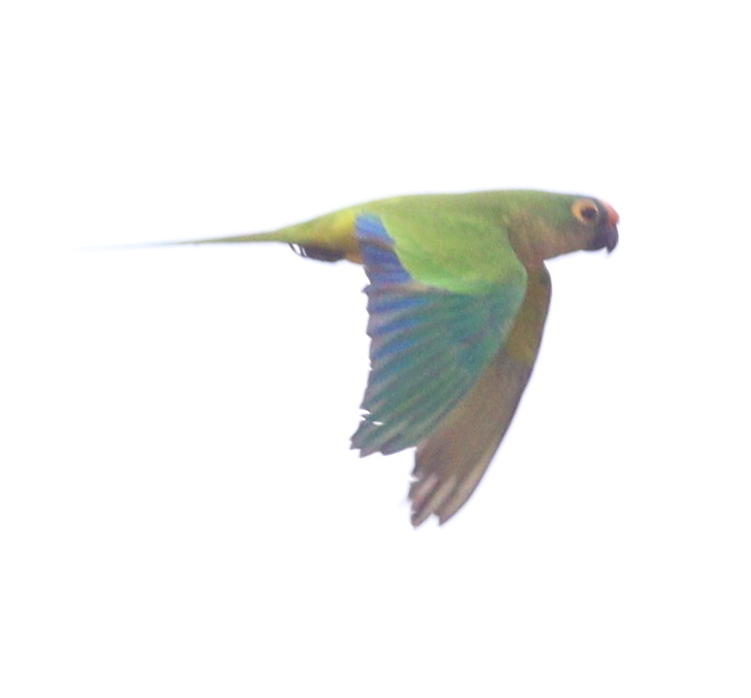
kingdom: Animalia
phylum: Chordata
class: Aves
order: Psittaciformes
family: Psittacidae
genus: Aratinga
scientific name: Aratinga aurea
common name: Peach-fronted parakeet
